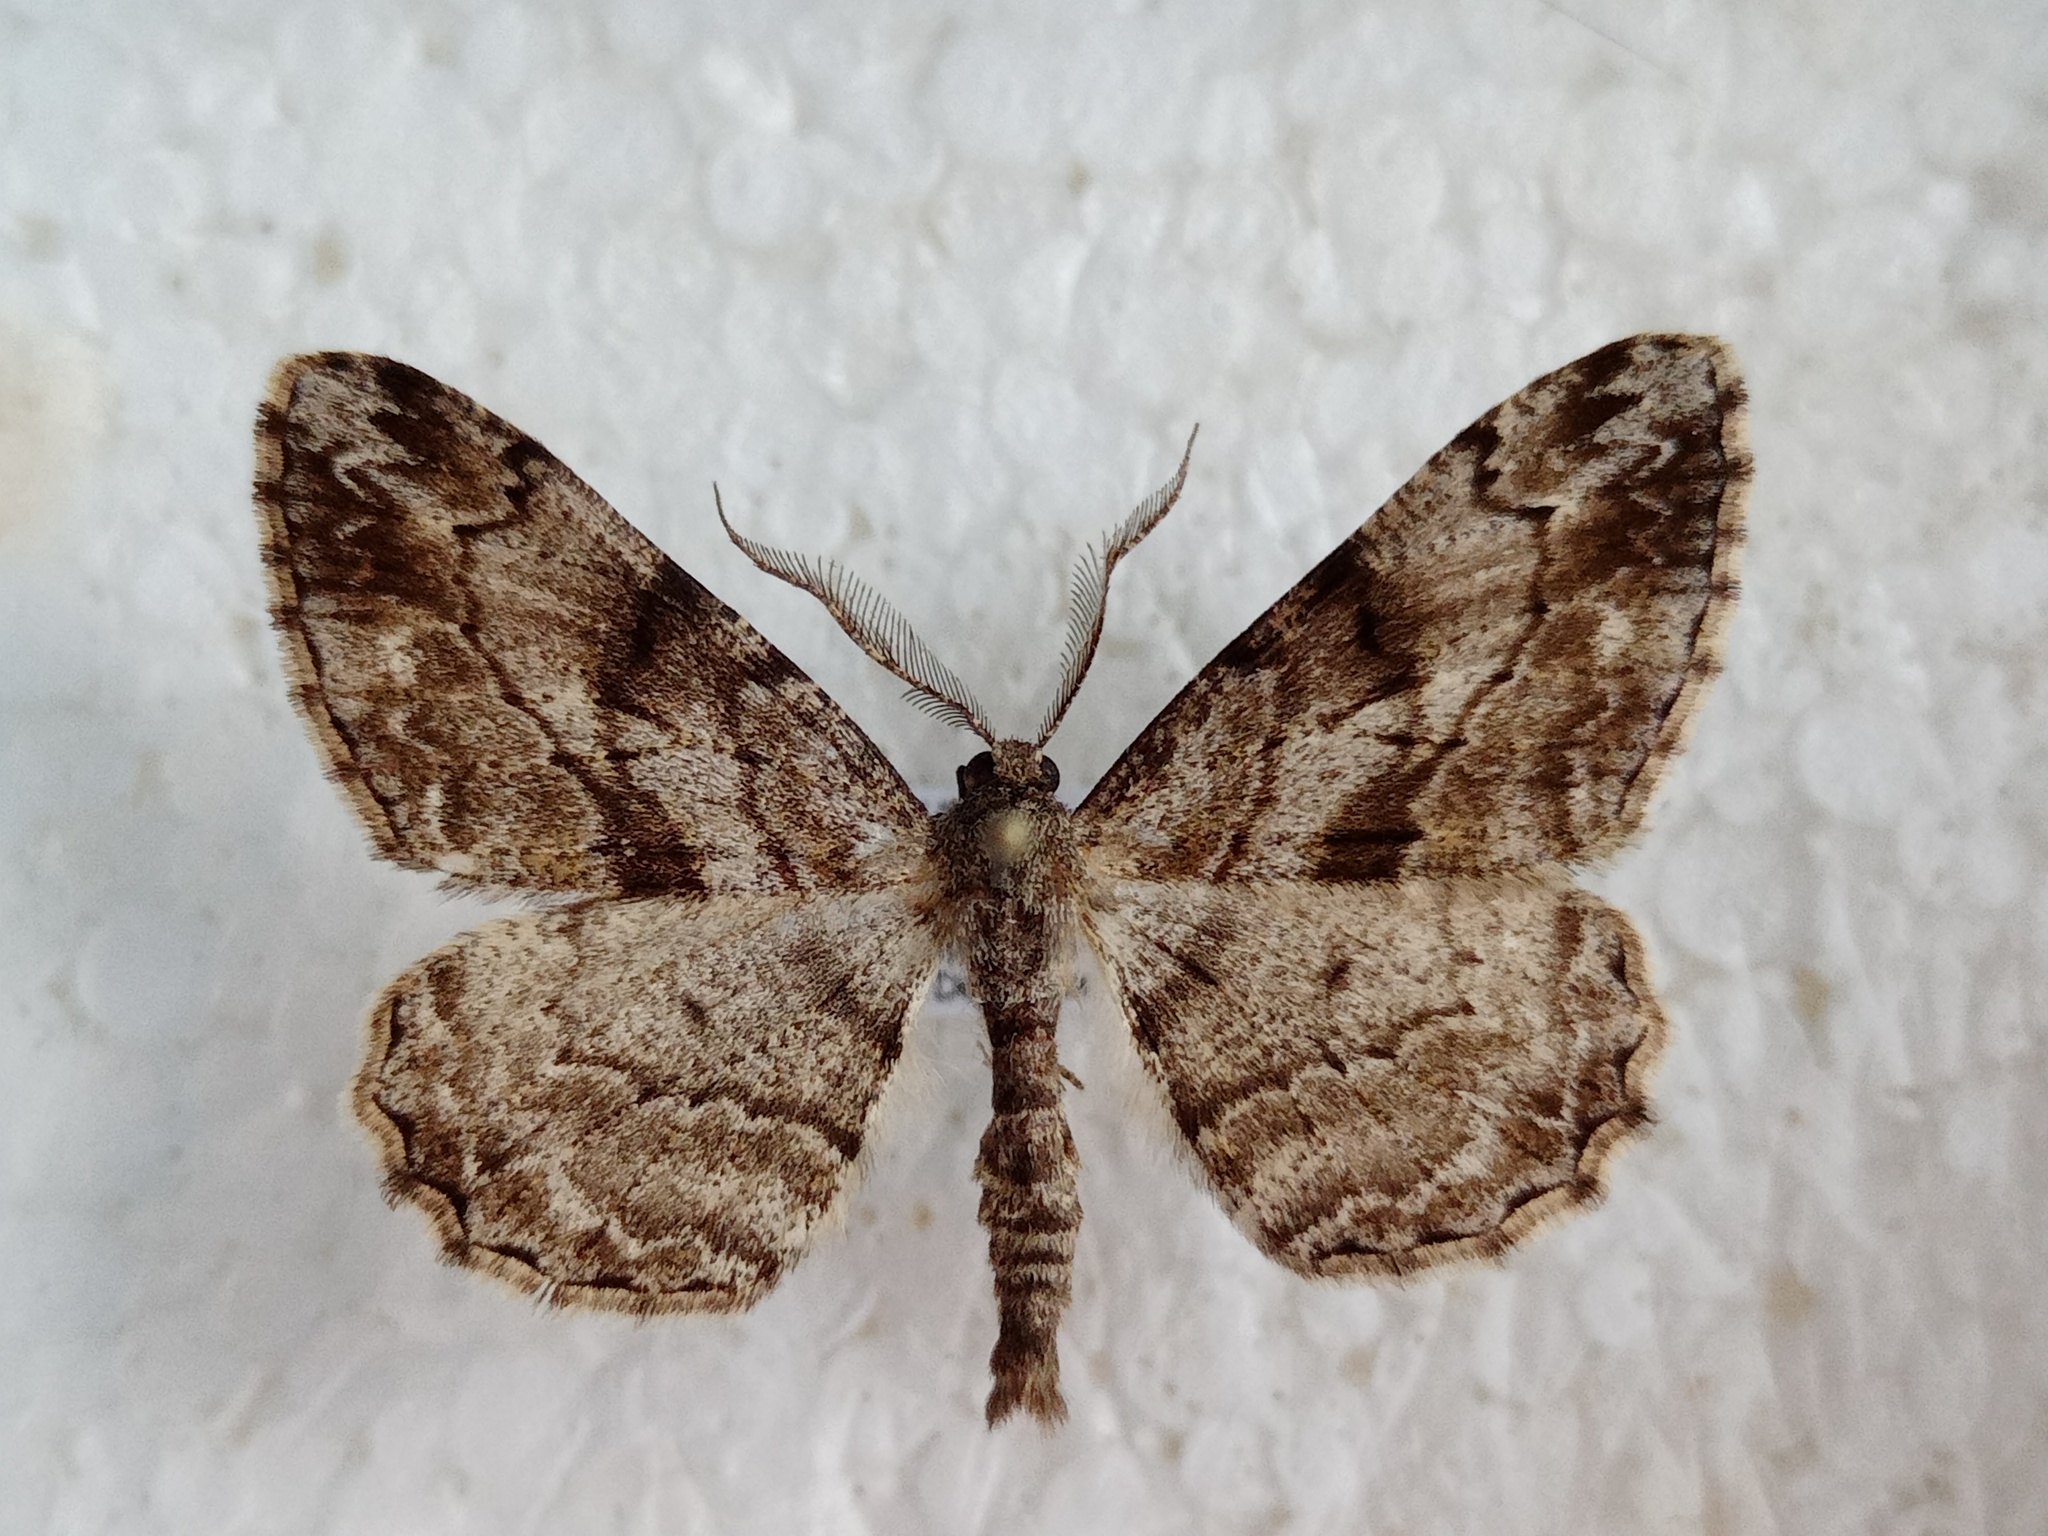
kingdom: Animalia
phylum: Arthropoda
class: Insecta
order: Lepidoptera
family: Geometridae
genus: Peribatodes
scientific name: Peribatodes rhomboidaria
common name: Willow beauty
